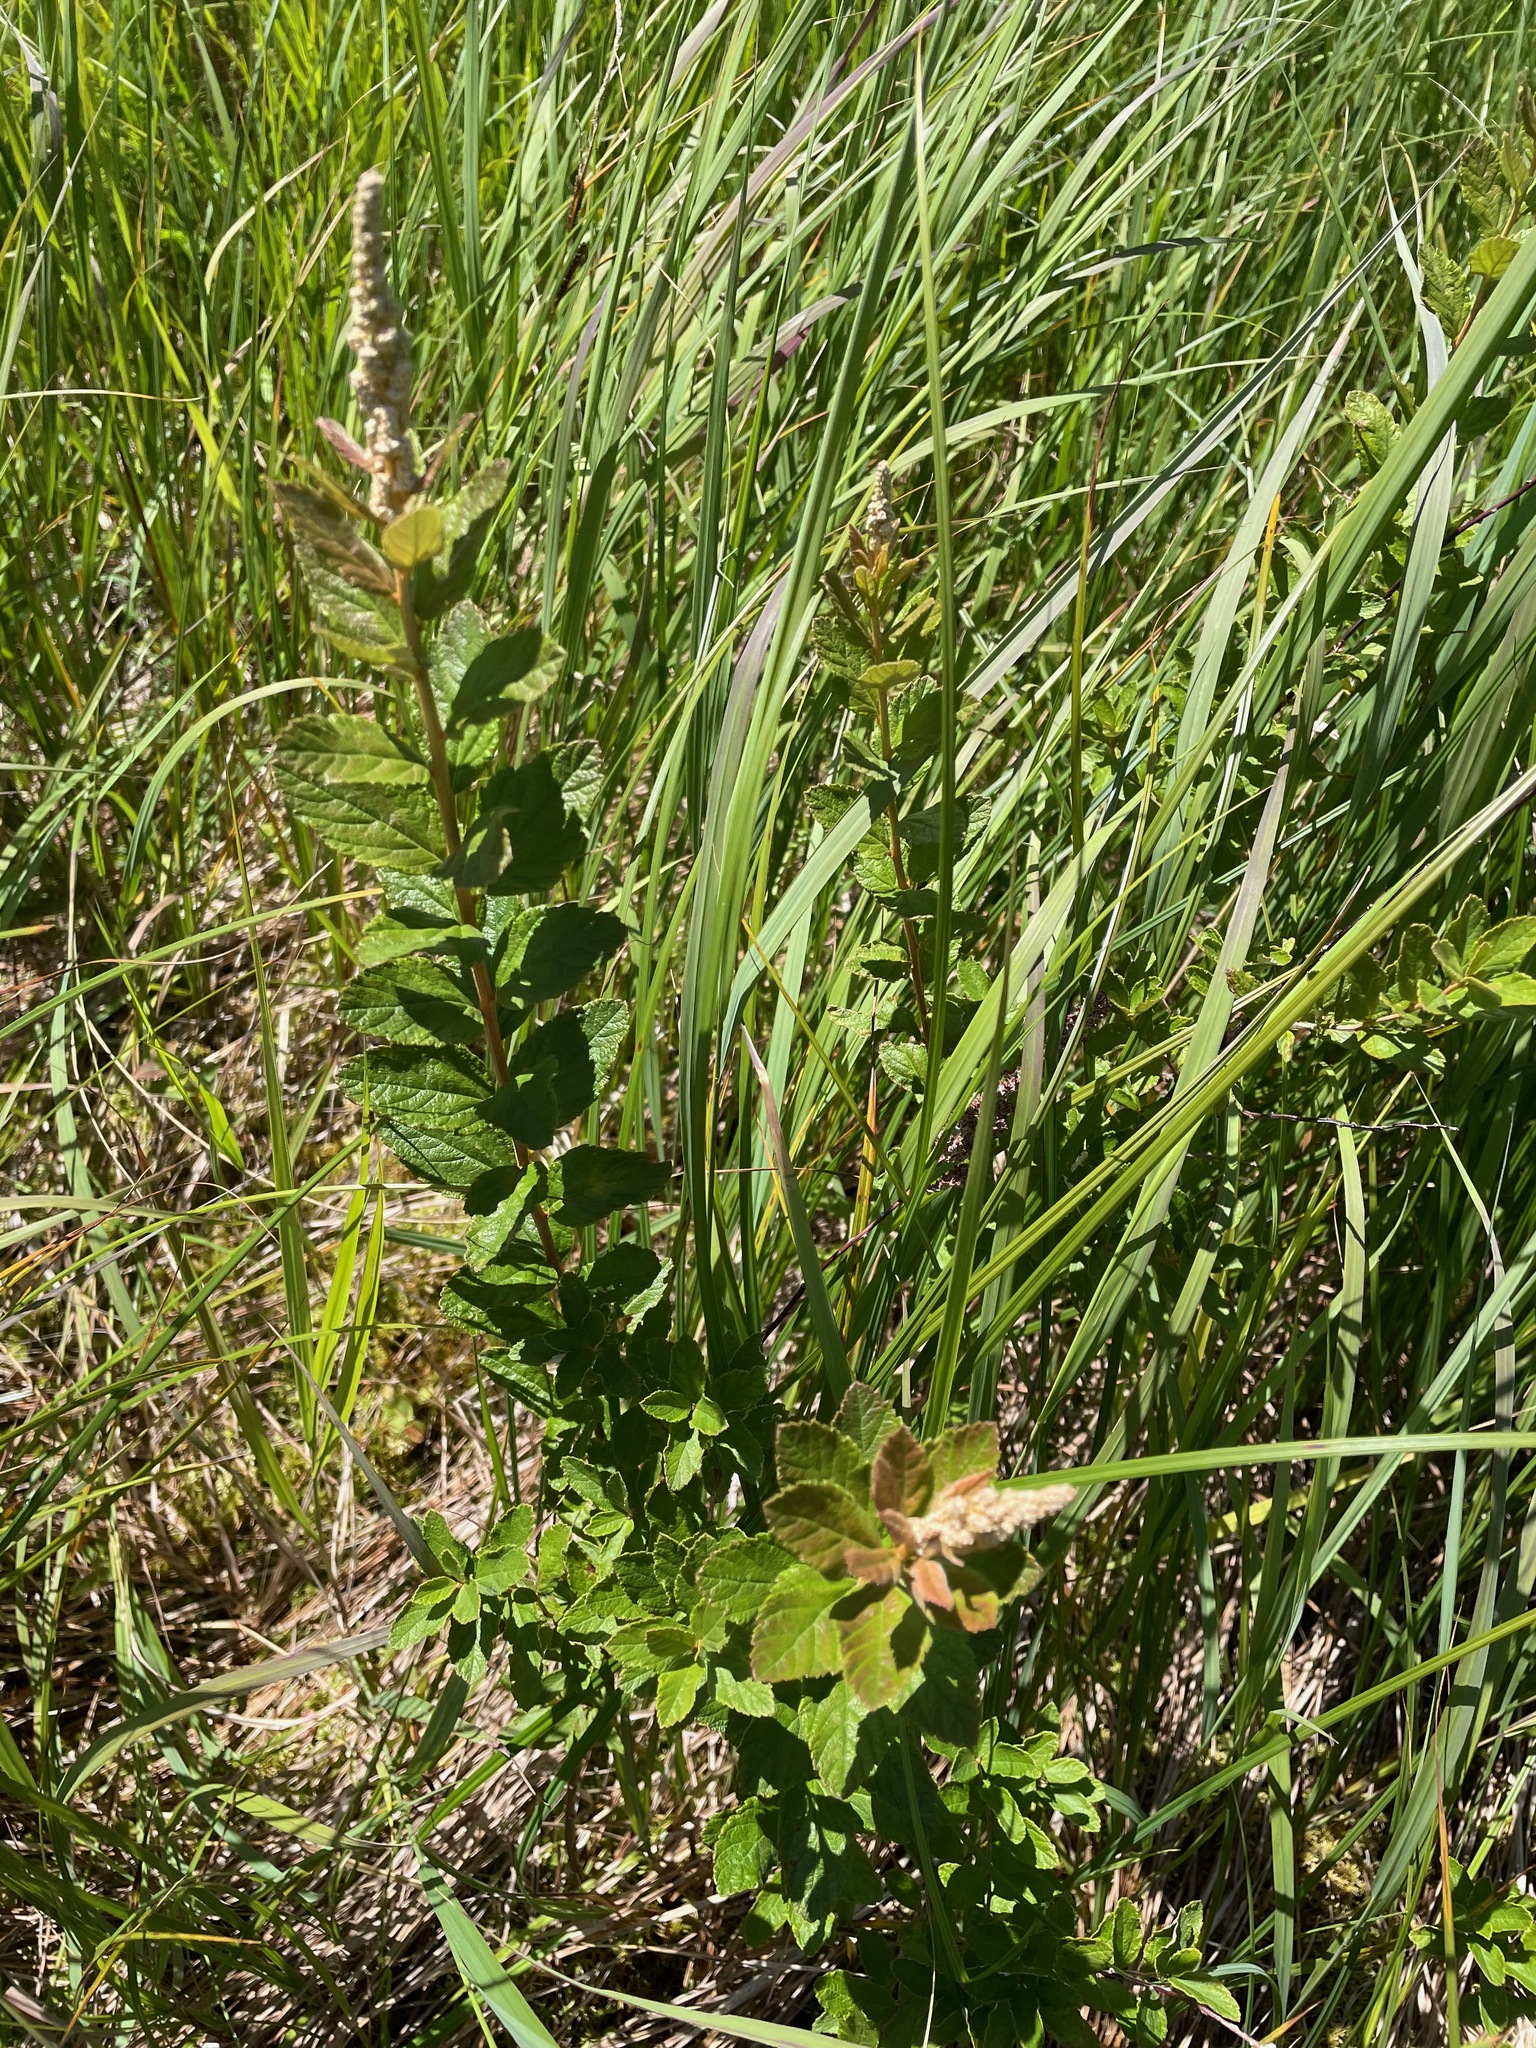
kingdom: Plantae
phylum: Tracheophyta
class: Magnoliopsida
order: Rosales
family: Rosaceae
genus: Spiraea
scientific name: Spiraea tomentosa
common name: Hardhack
